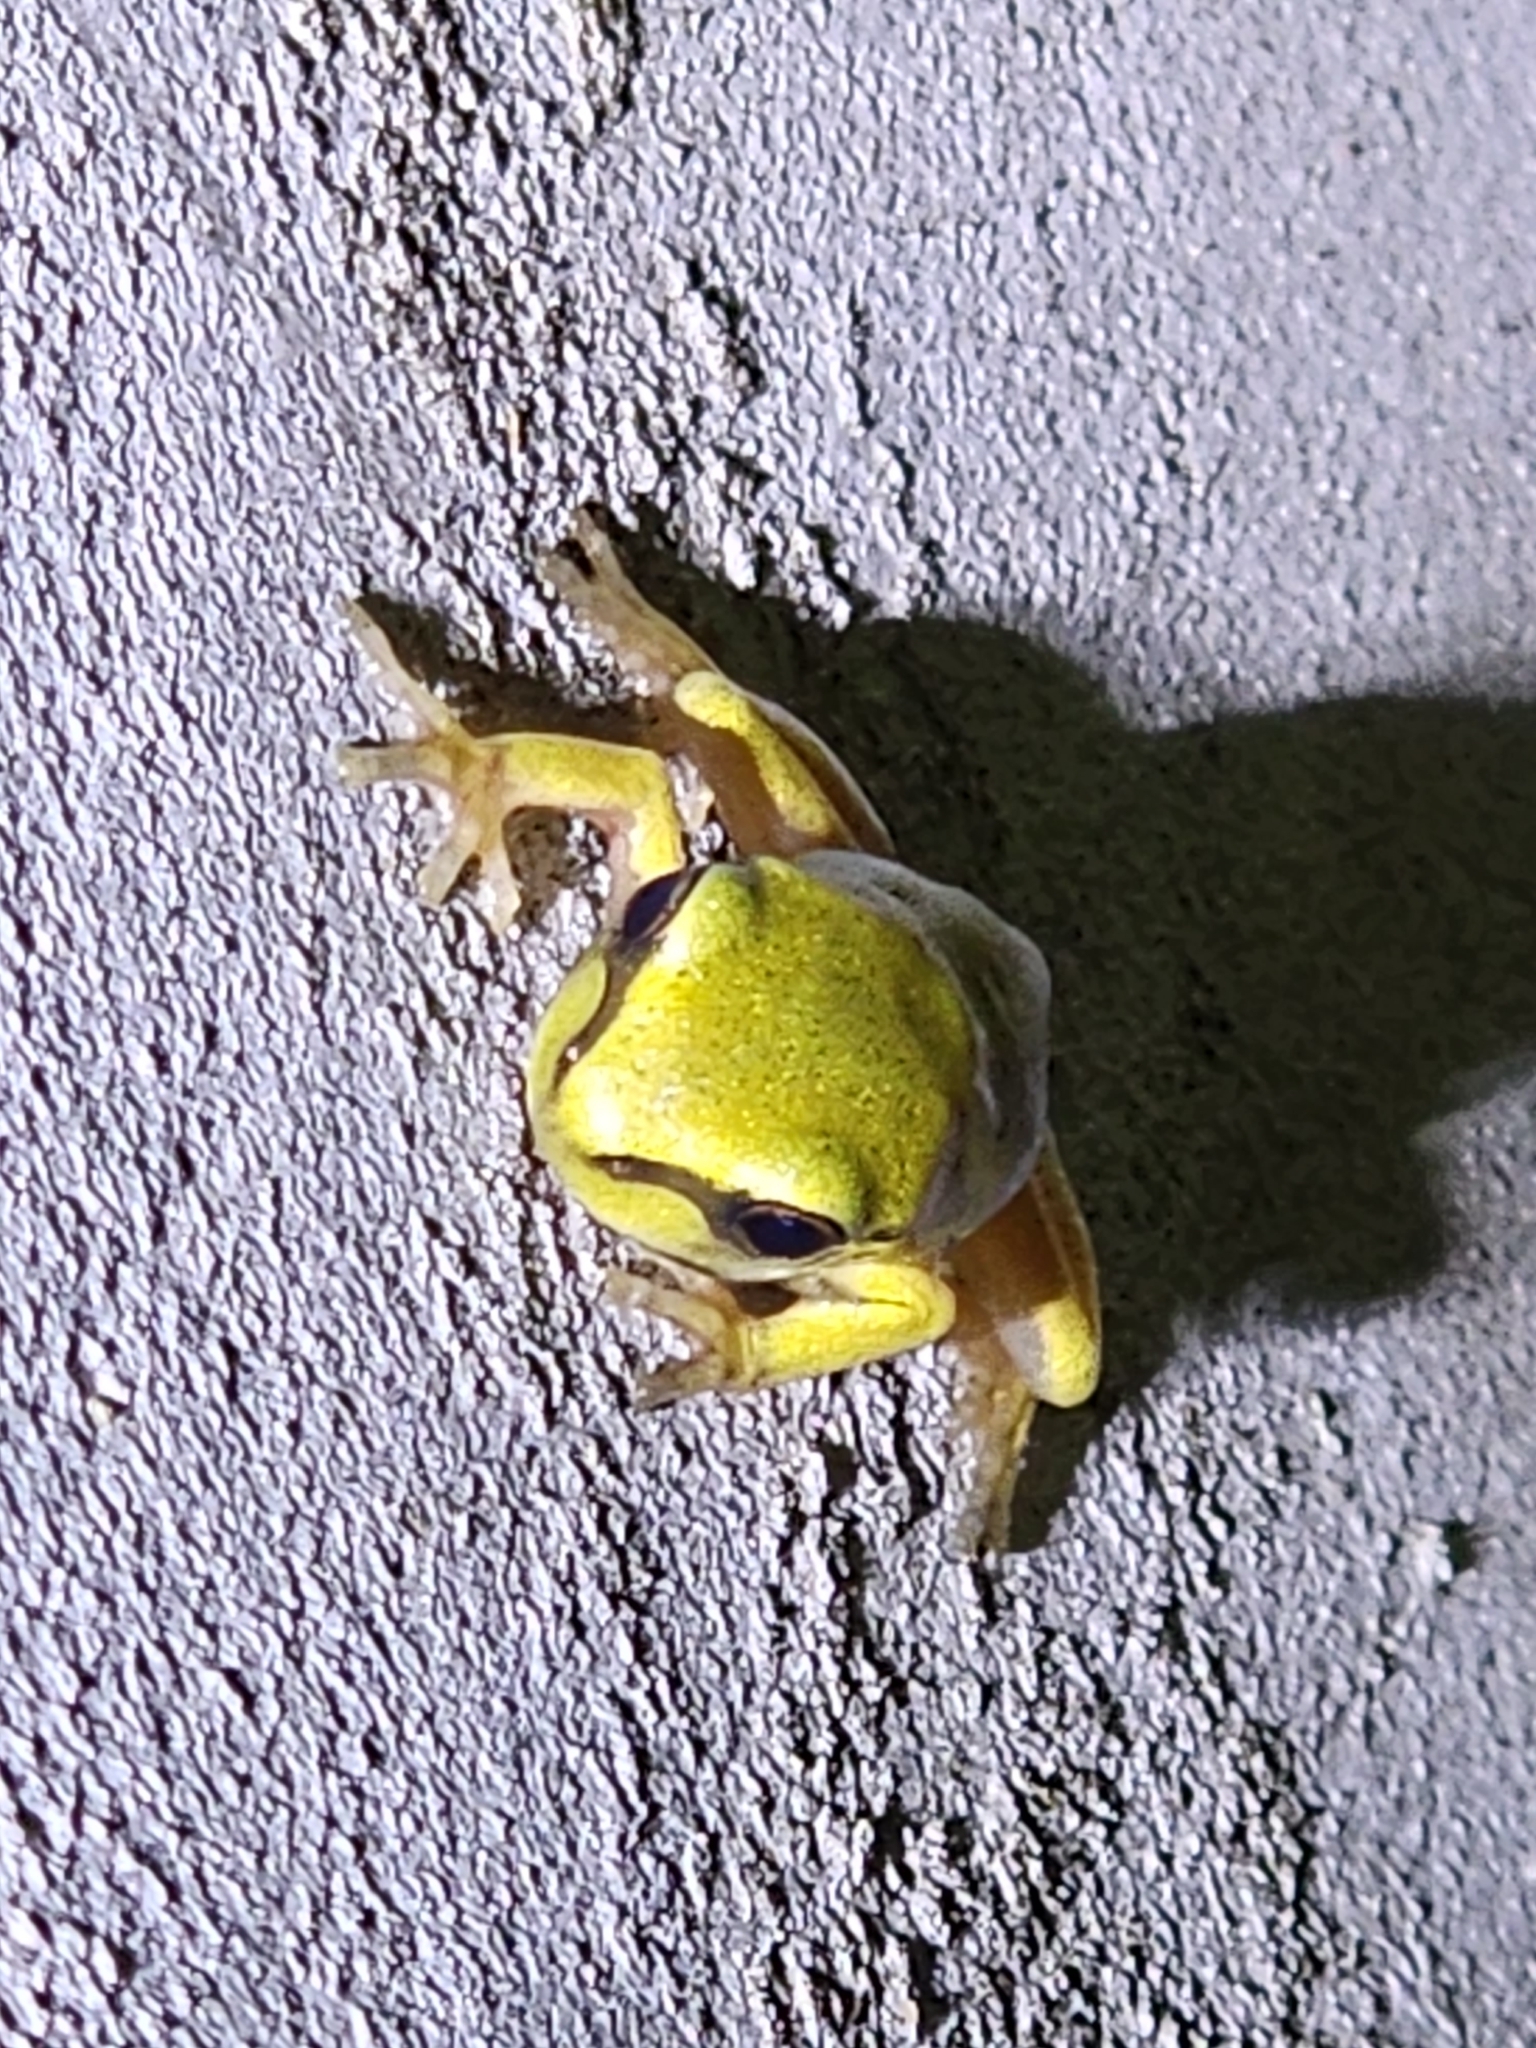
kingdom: Animalia
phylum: Chordata
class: Amphibia
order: Anura
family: Pelodryadidae
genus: Ranoidea
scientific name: Ranoidea caerulea
